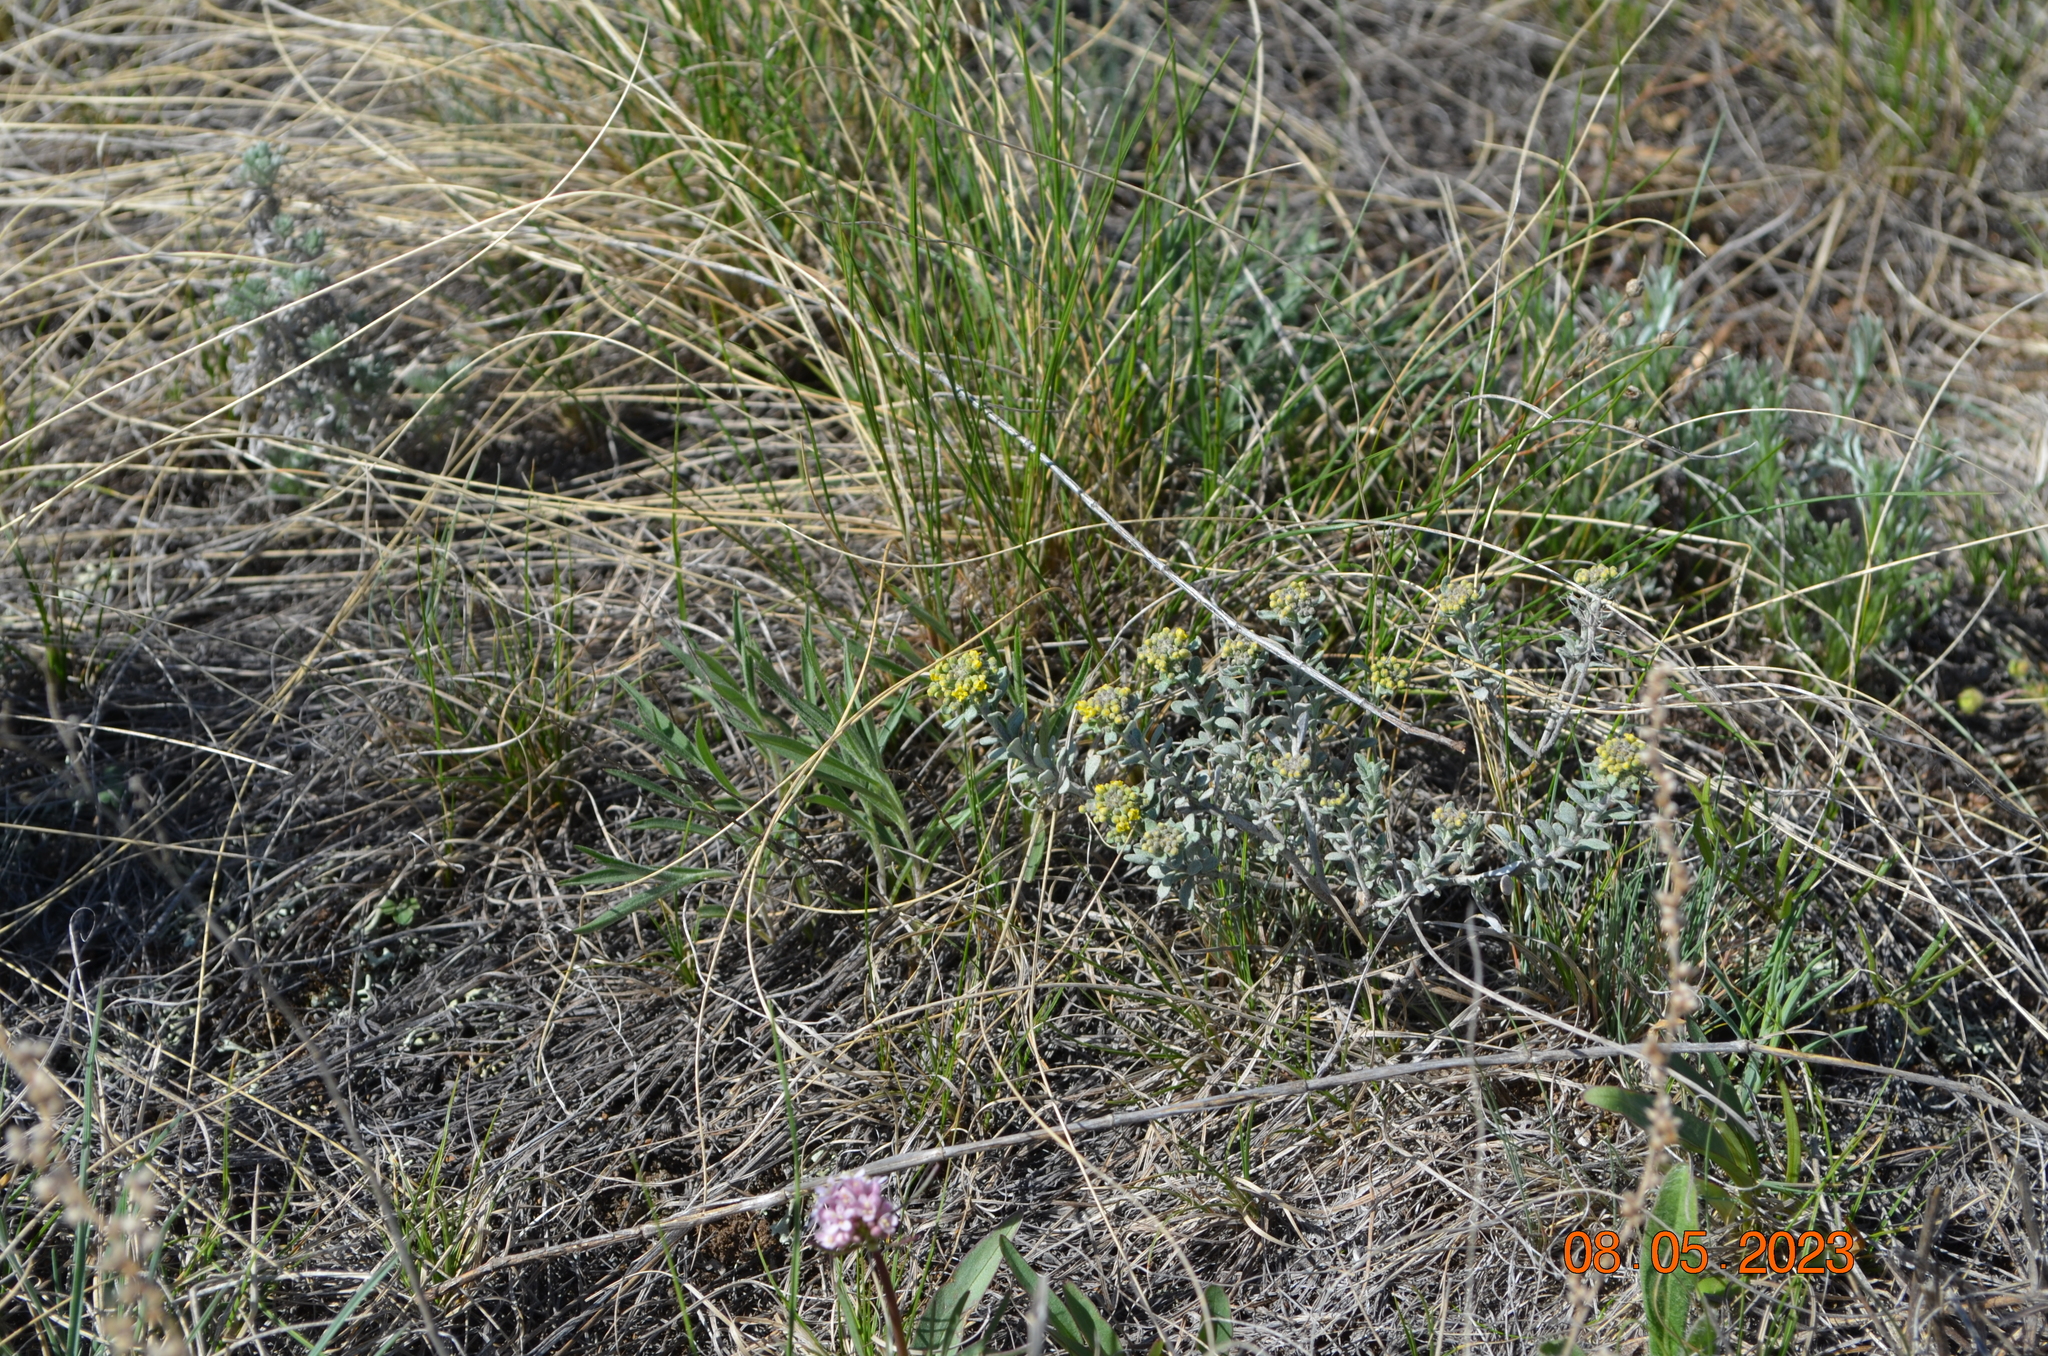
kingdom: Plantae
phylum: Tracheophyta
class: Magnoliopsida
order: Brassicales
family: Brassicaceae
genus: Odontarrhena
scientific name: Odontarrhena tortuosa
